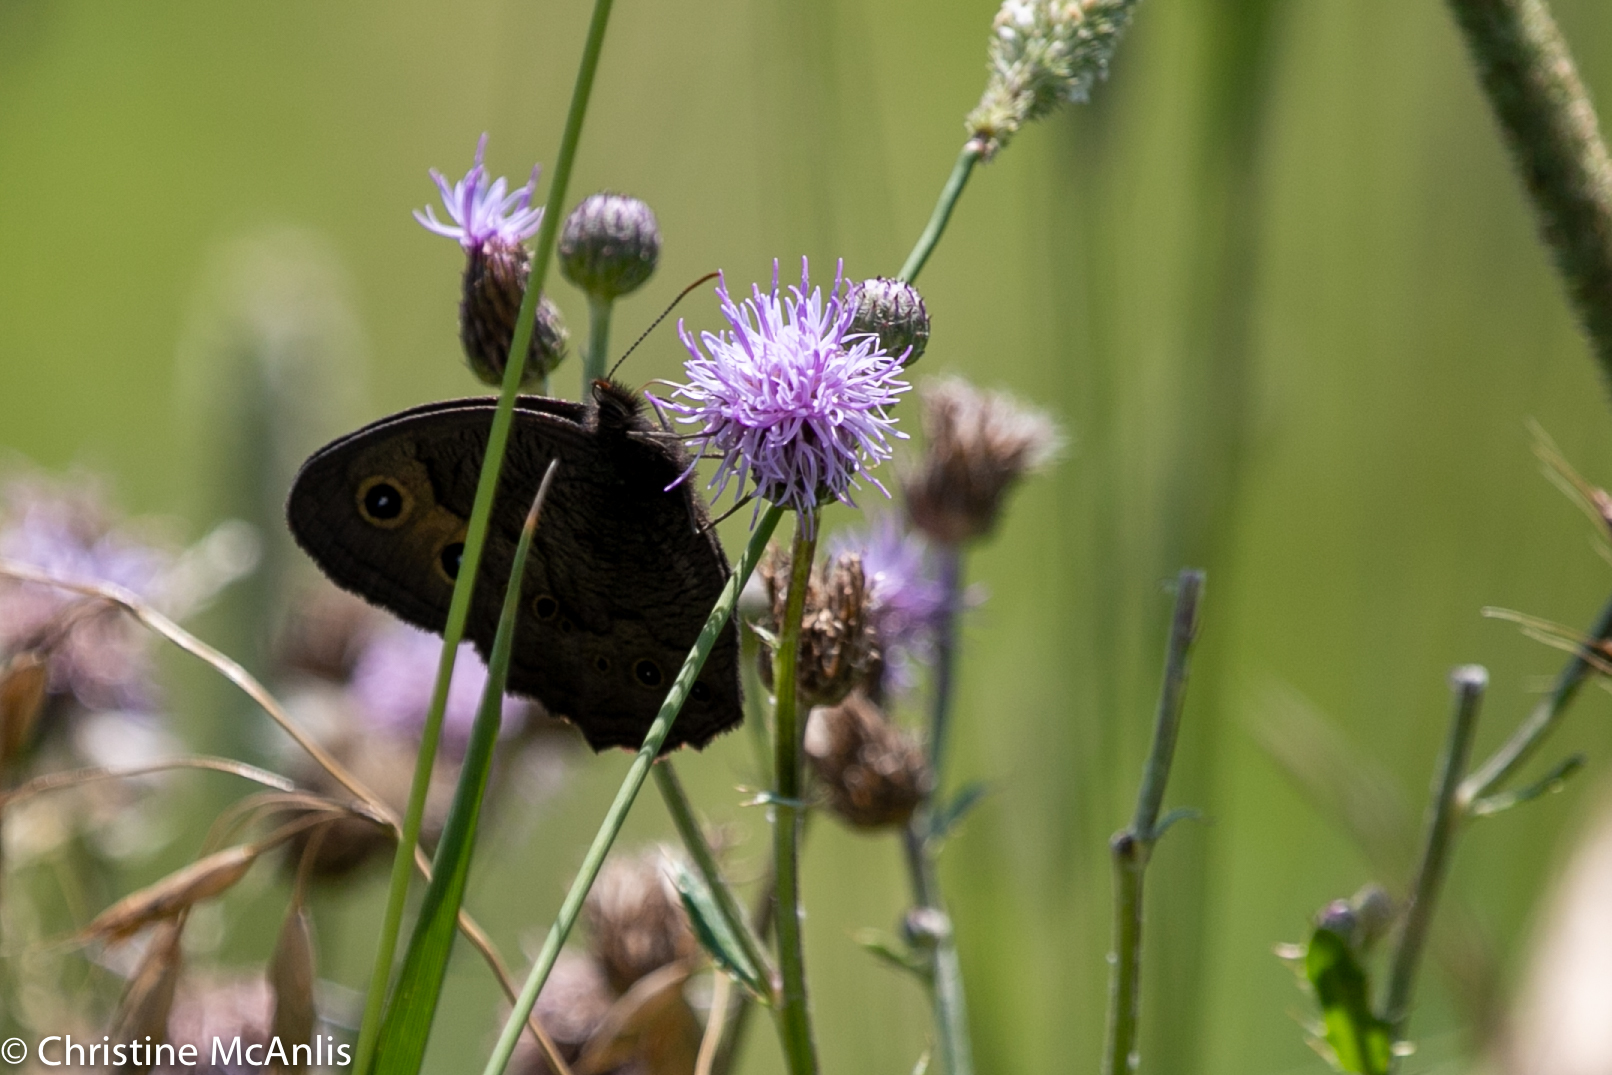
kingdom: Animalia
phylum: Arthropoda
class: Insecta
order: Lepidoptera
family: Nymphalidae
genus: Cercyonis
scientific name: Cercyonis pegala
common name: Common wood-nymph
